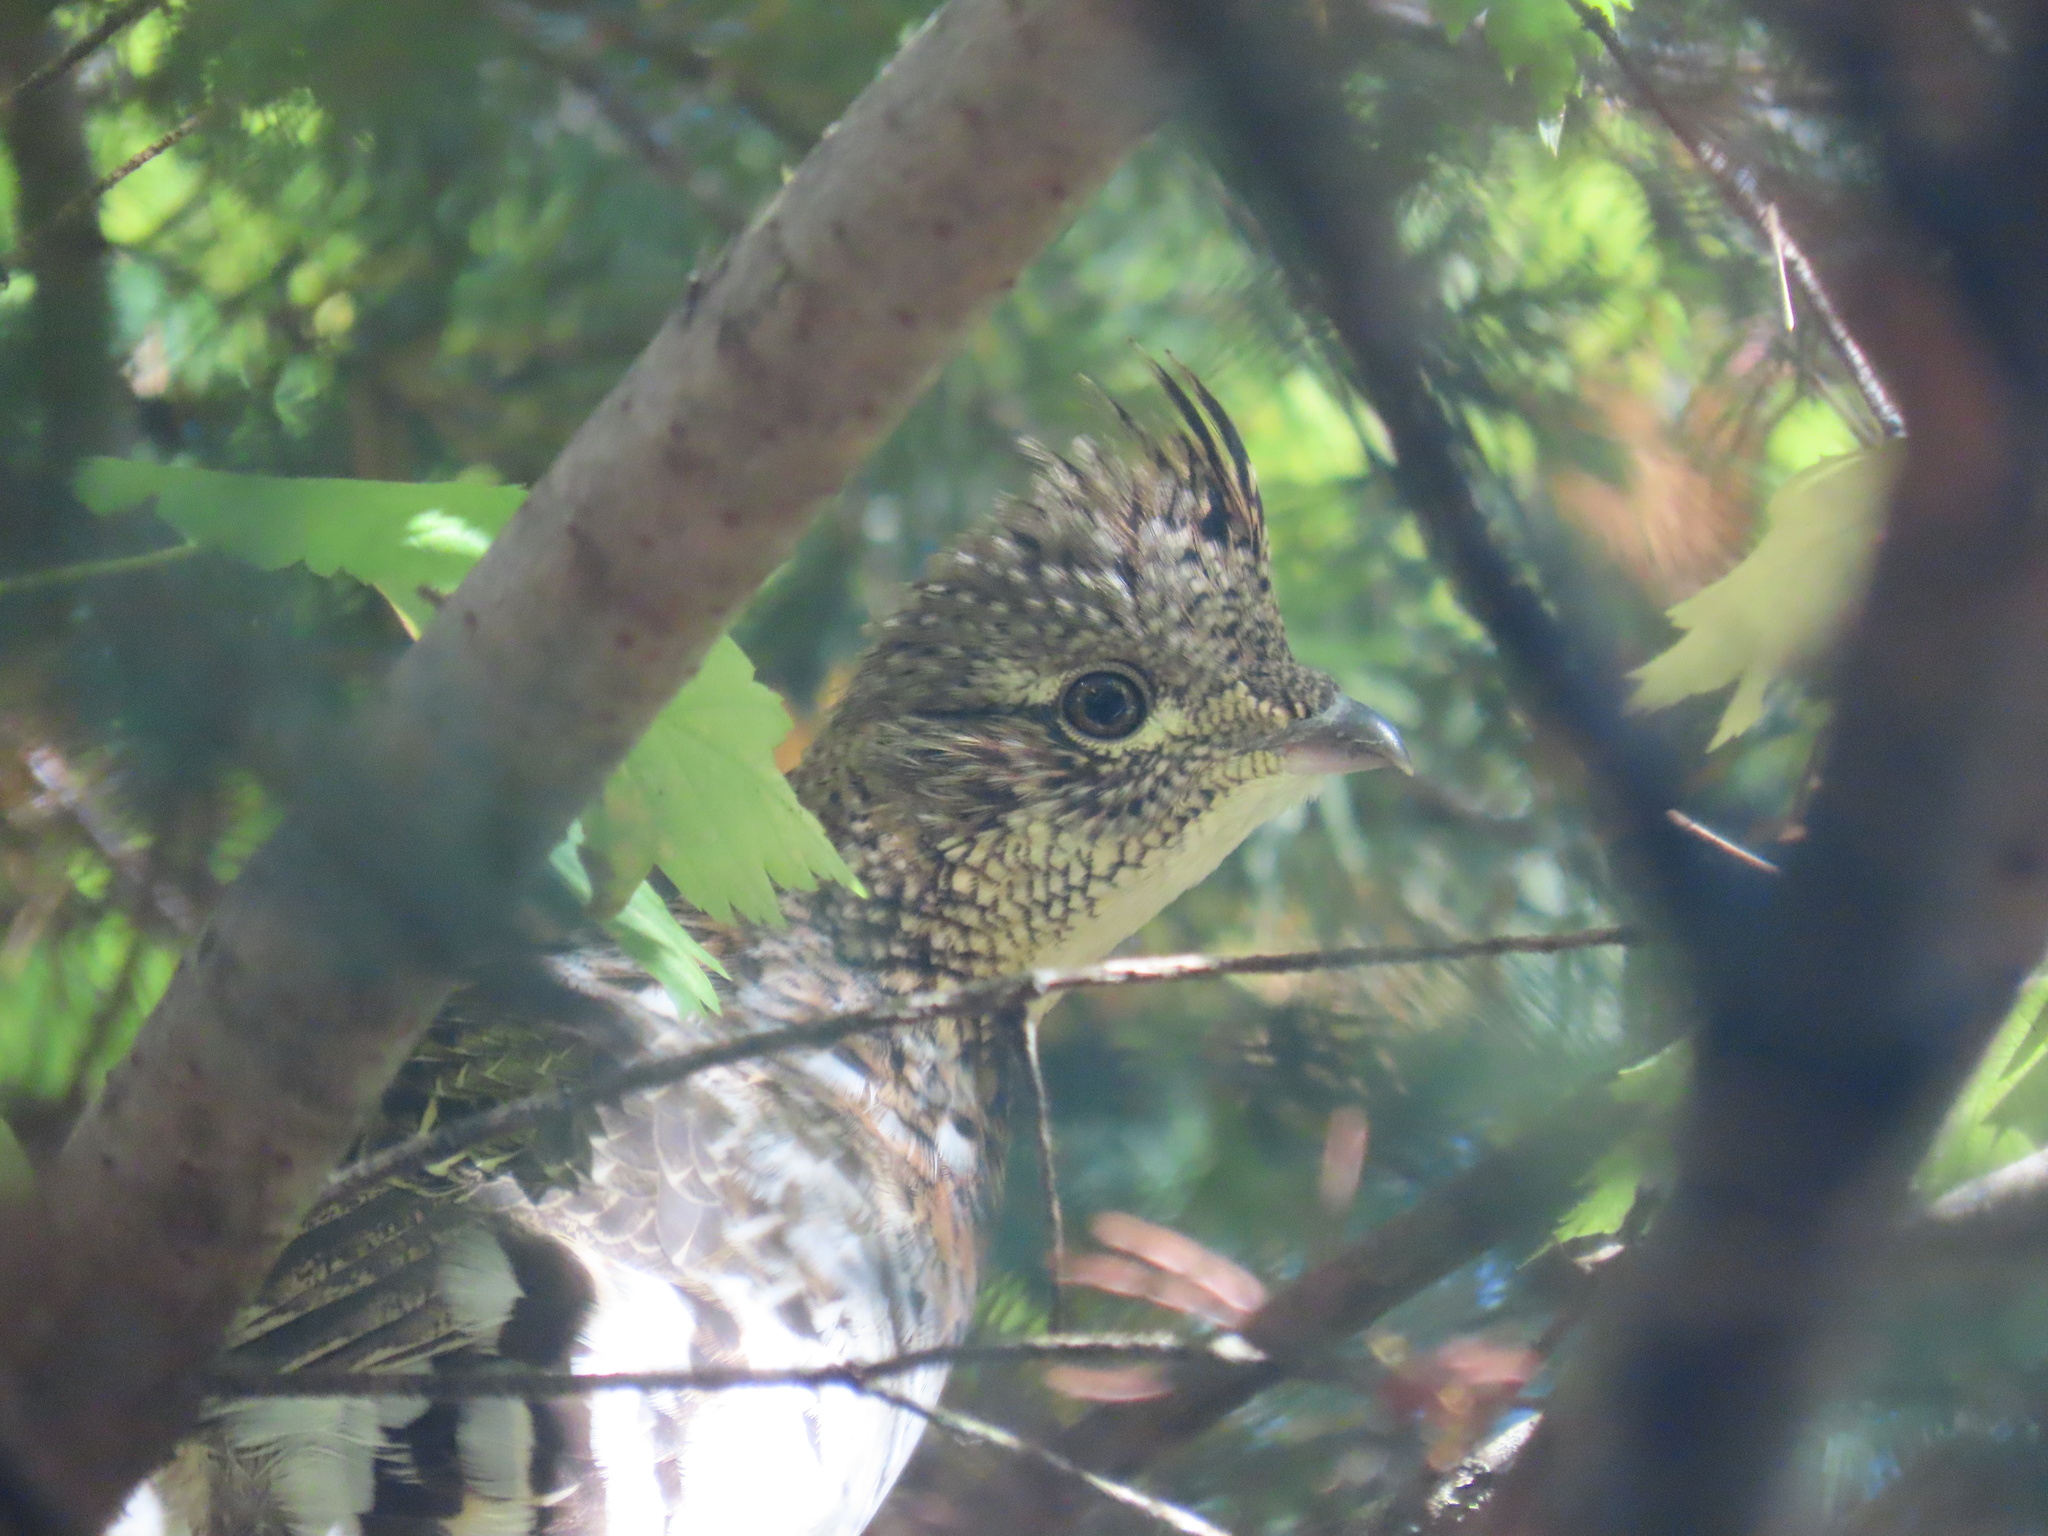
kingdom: Animalia
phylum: Chordata
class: Aves
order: Galliformes
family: Phasianidae
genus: Bonasa
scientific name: Bonasa umbellus
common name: Ruffed grouse
